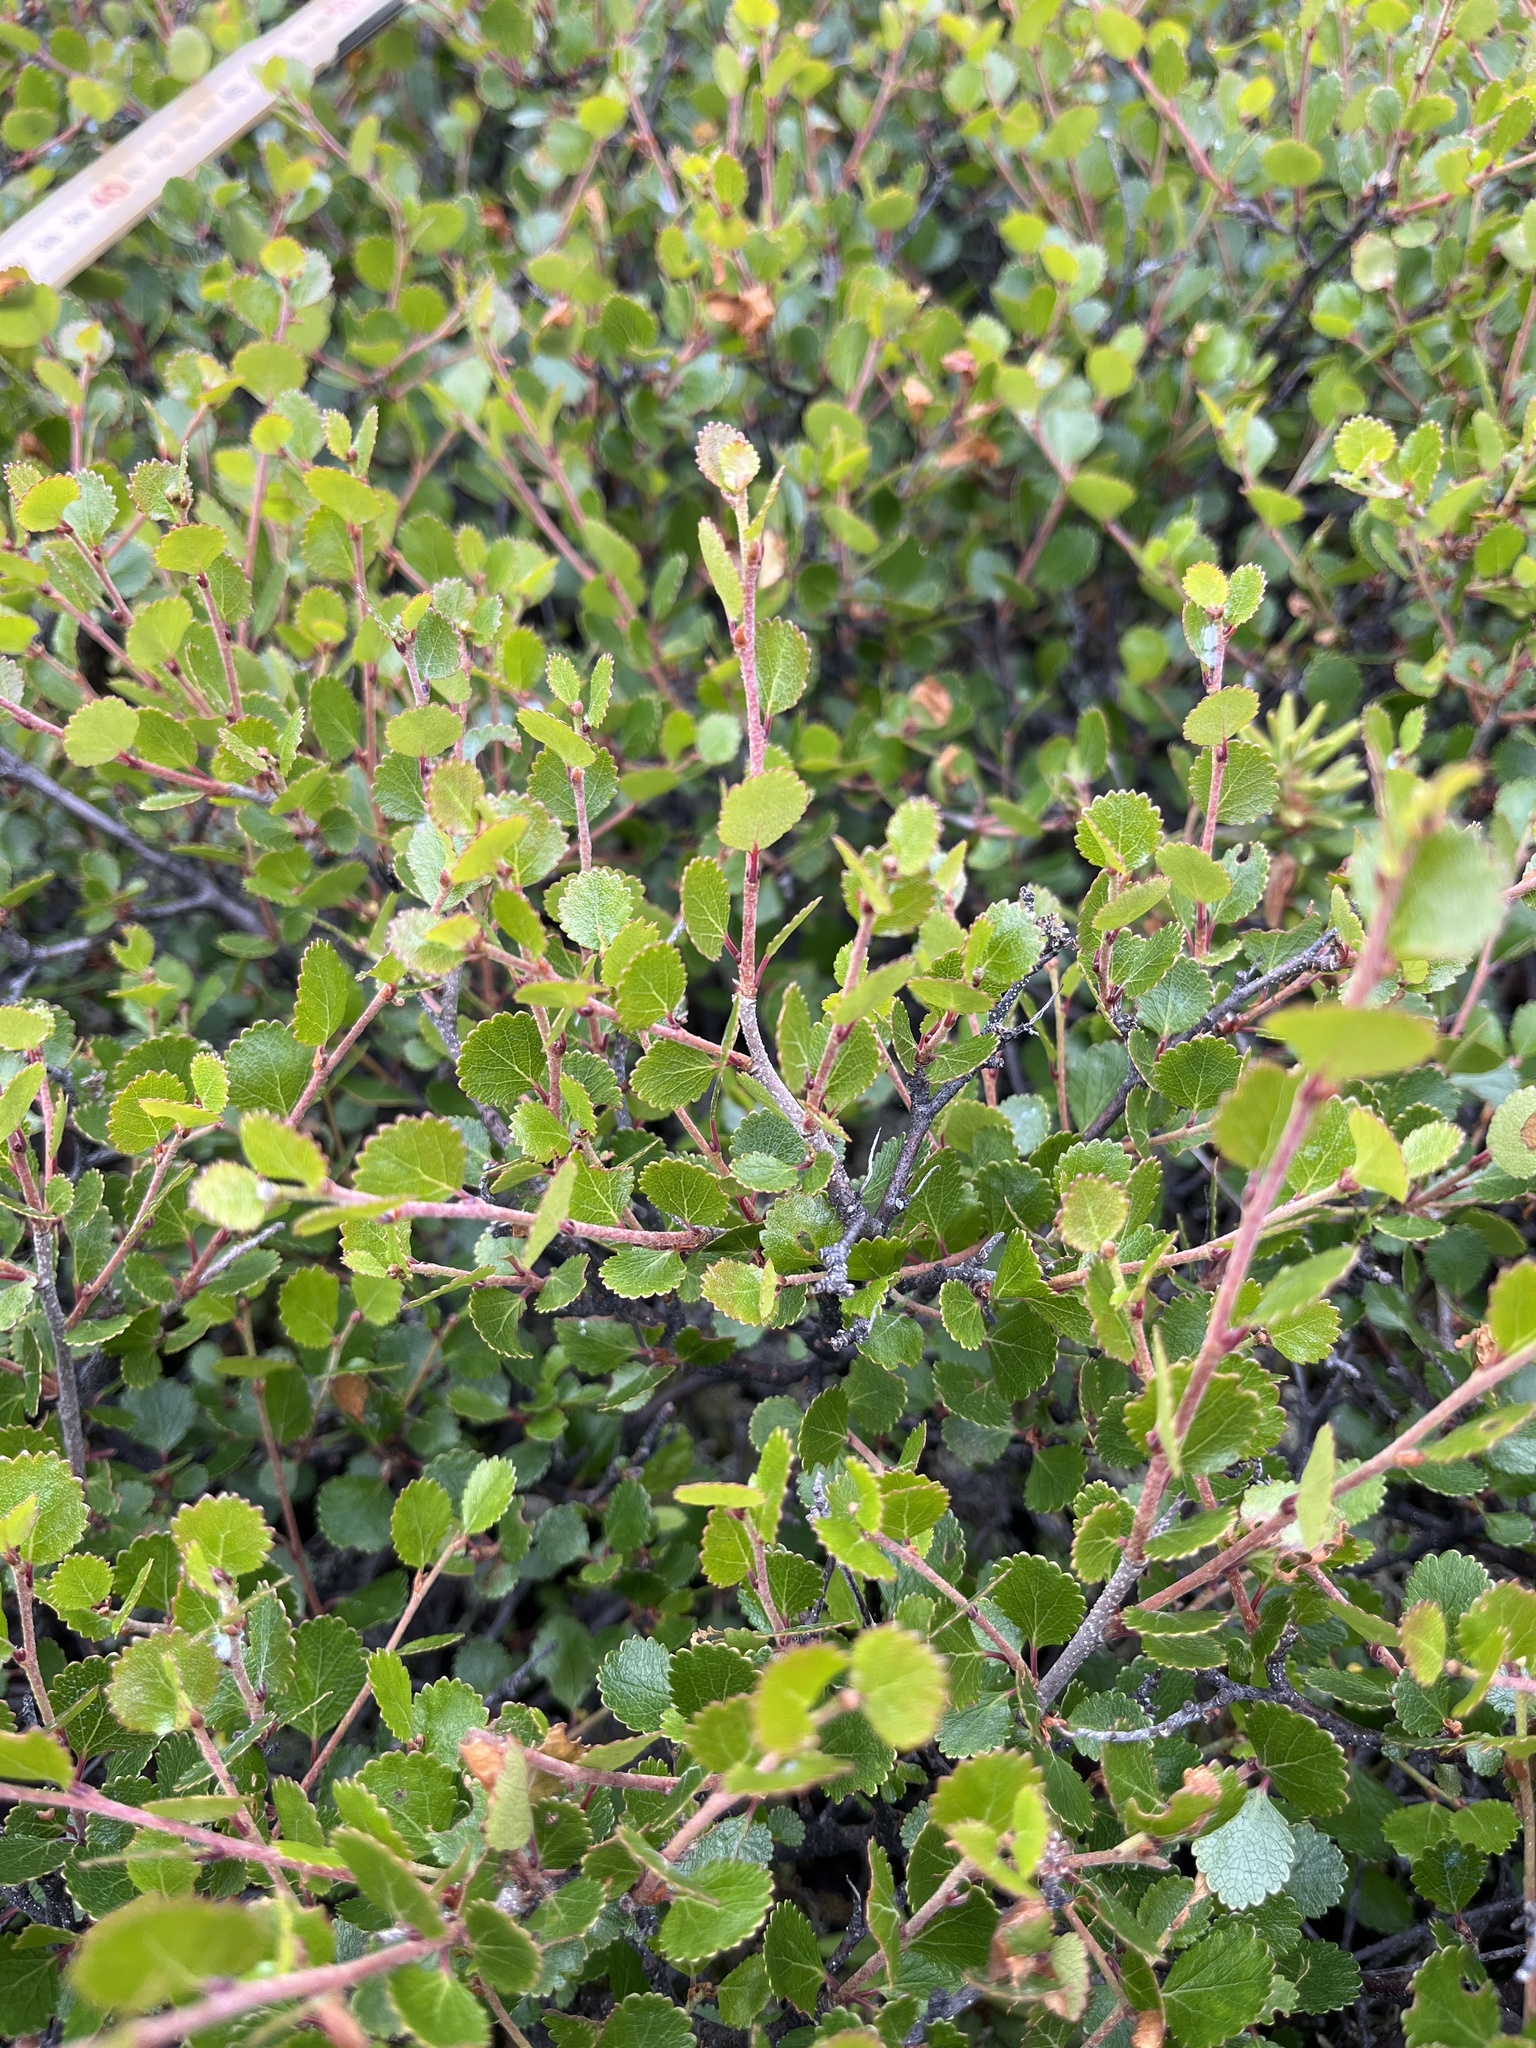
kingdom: Plantae
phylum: Tracheophyta
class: Magnoliopsida
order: Fagales
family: Betulaceae
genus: Betula
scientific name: Betula glandulosa
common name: Dwarf birch
